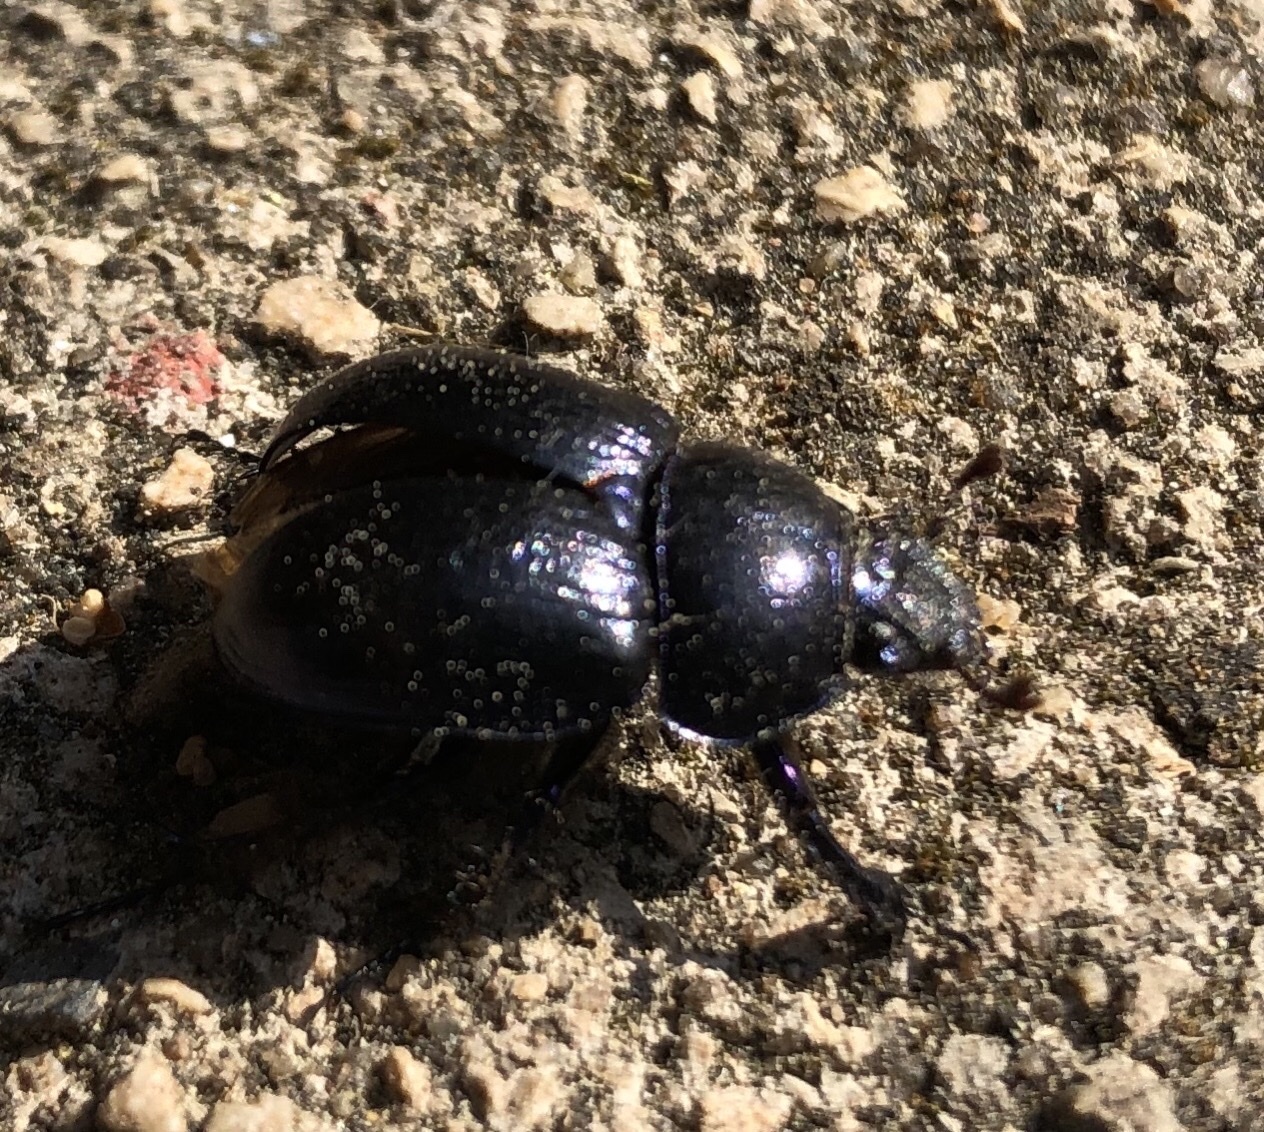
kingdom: Animalia
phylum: Arthropoda
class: Insecta
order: Coleoptera
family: Geotrupidae
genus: Anoplotrupes
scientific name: Anoplotrupes stercorosus
